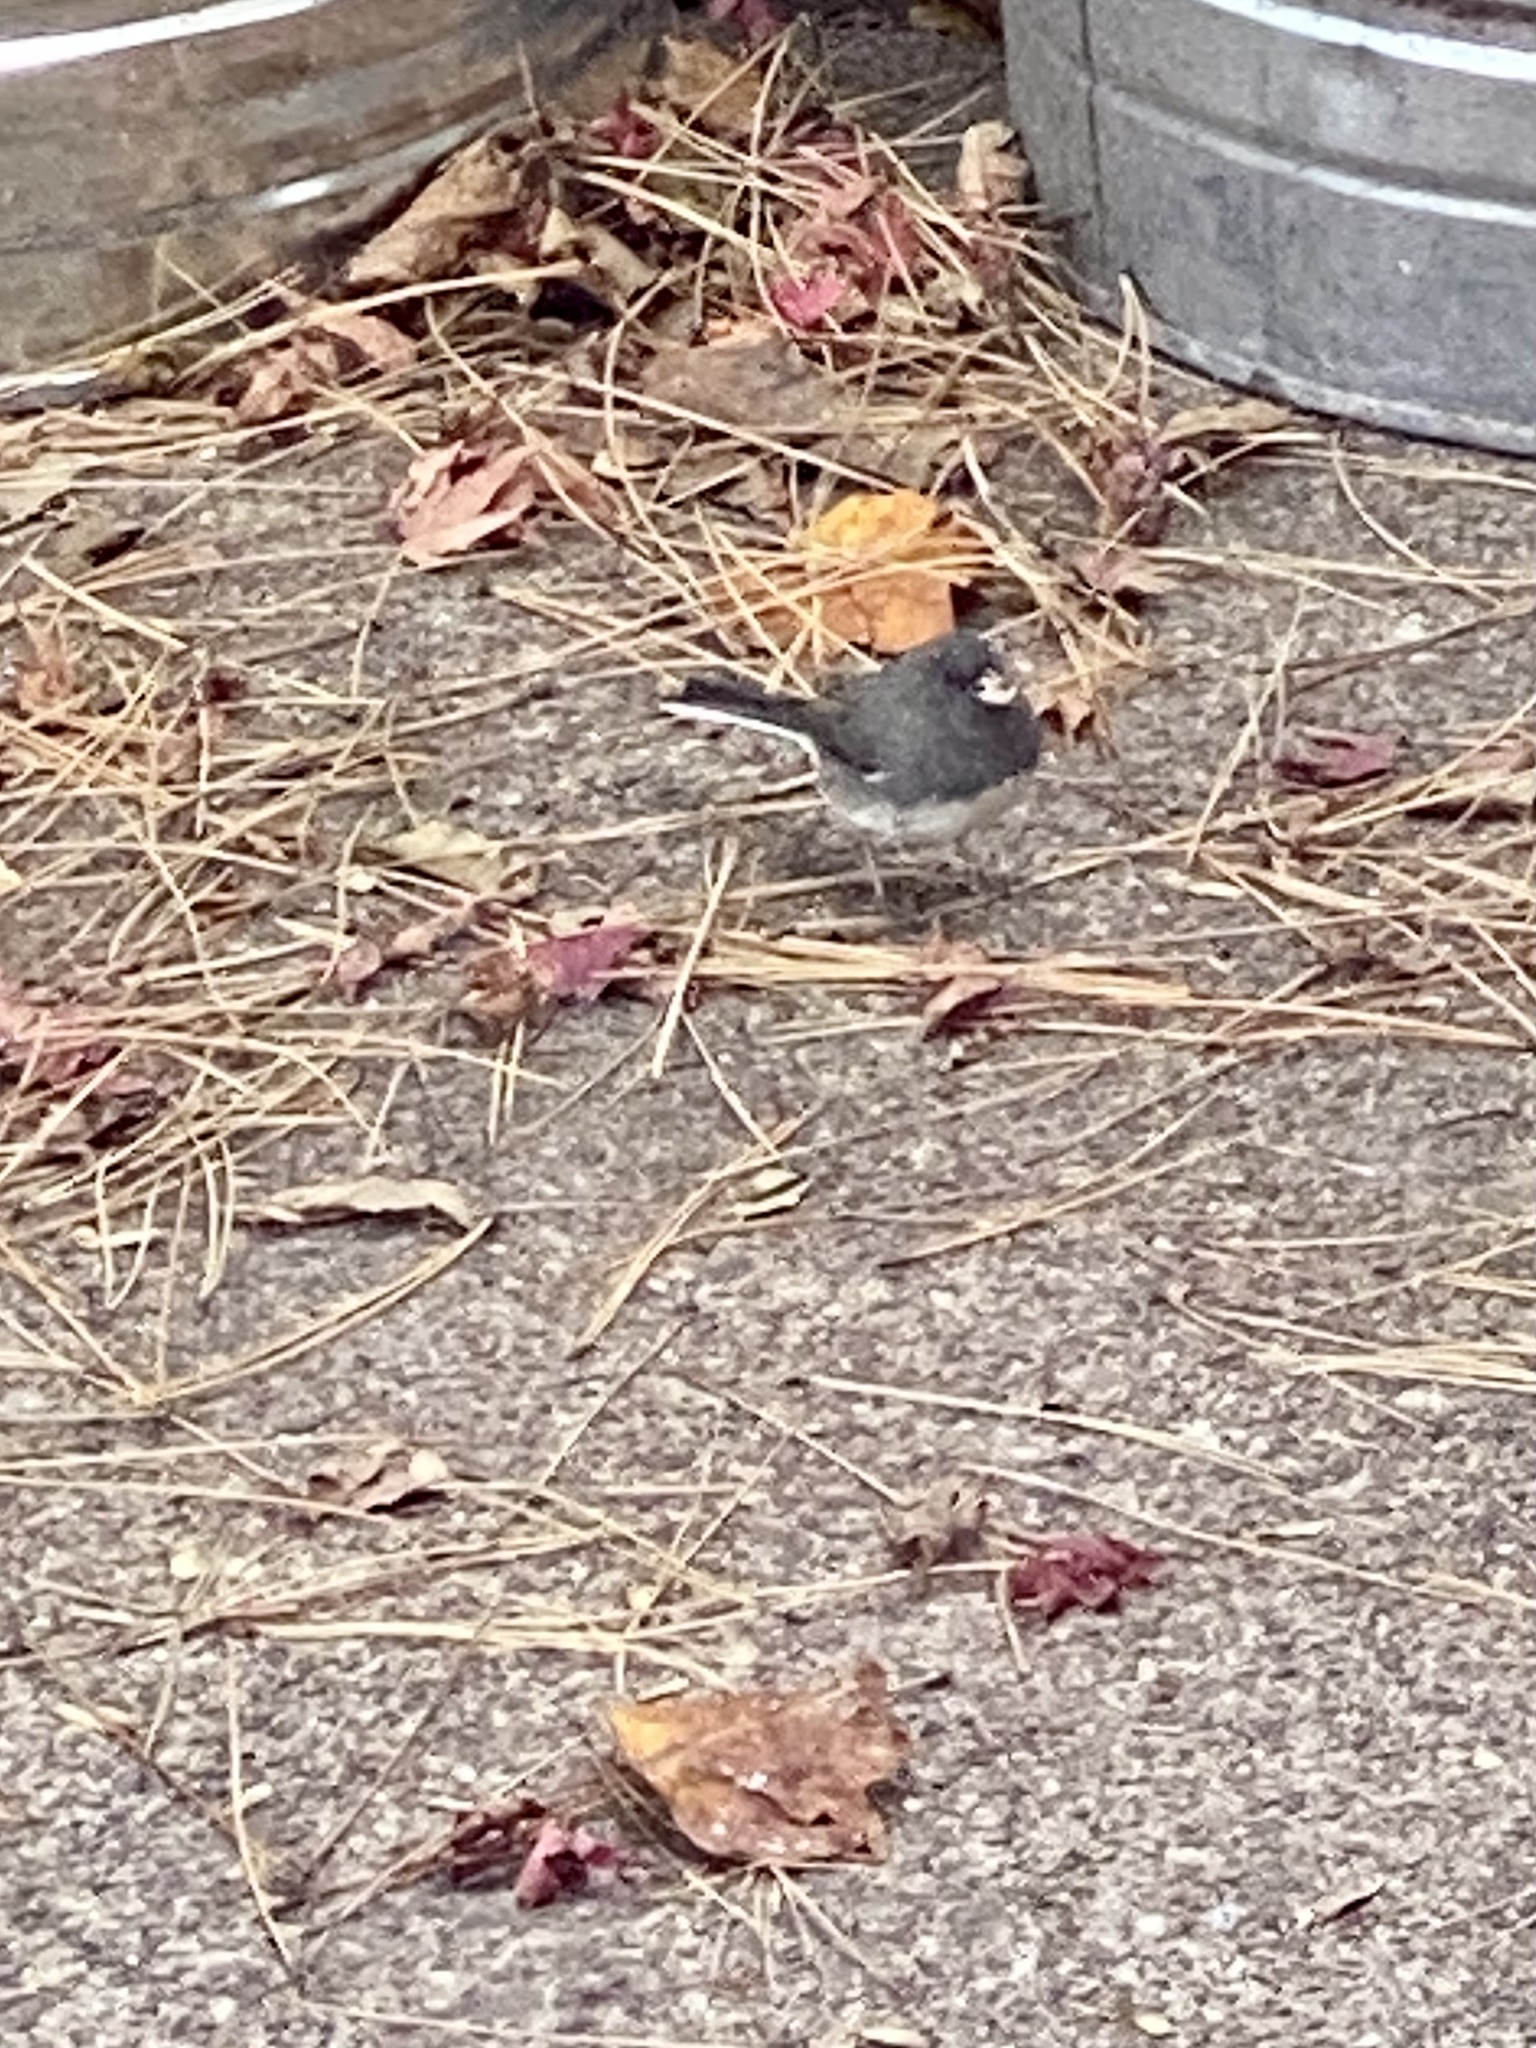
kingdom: Animalia
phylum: Chordata
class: Aves
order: Passeriformes
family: Passerellidae
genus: Junco
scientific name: Junco hyemalis
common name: Dark-eyed junco
